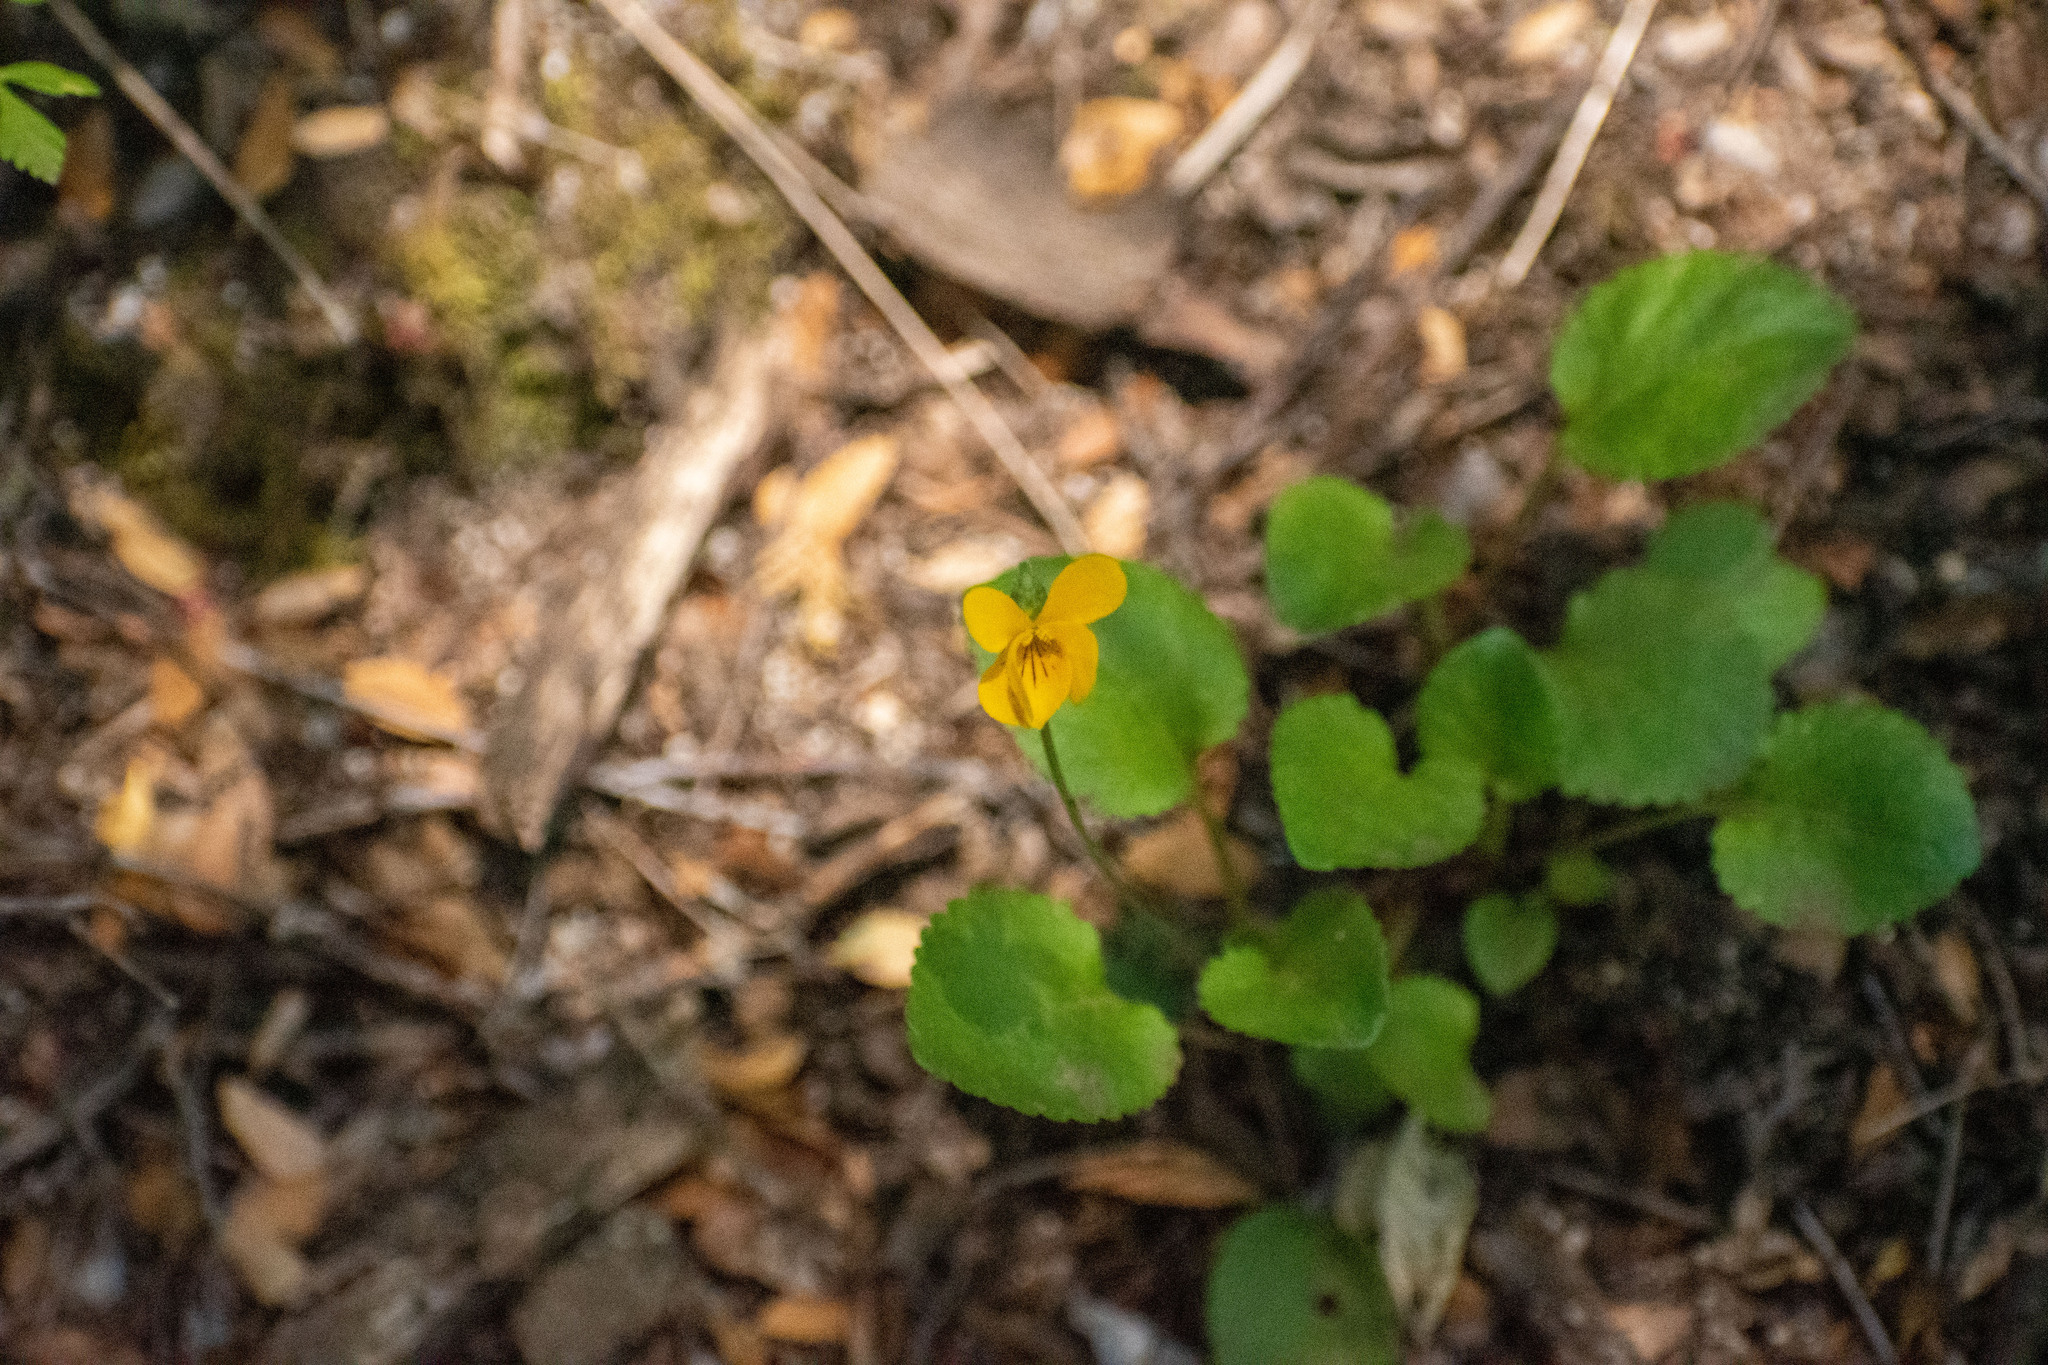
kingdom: Plantae
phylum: Tracheophyta
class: Magnoliopsida
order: Malpighiales
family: Violaceae
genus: Viola
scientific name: Viola reichei
